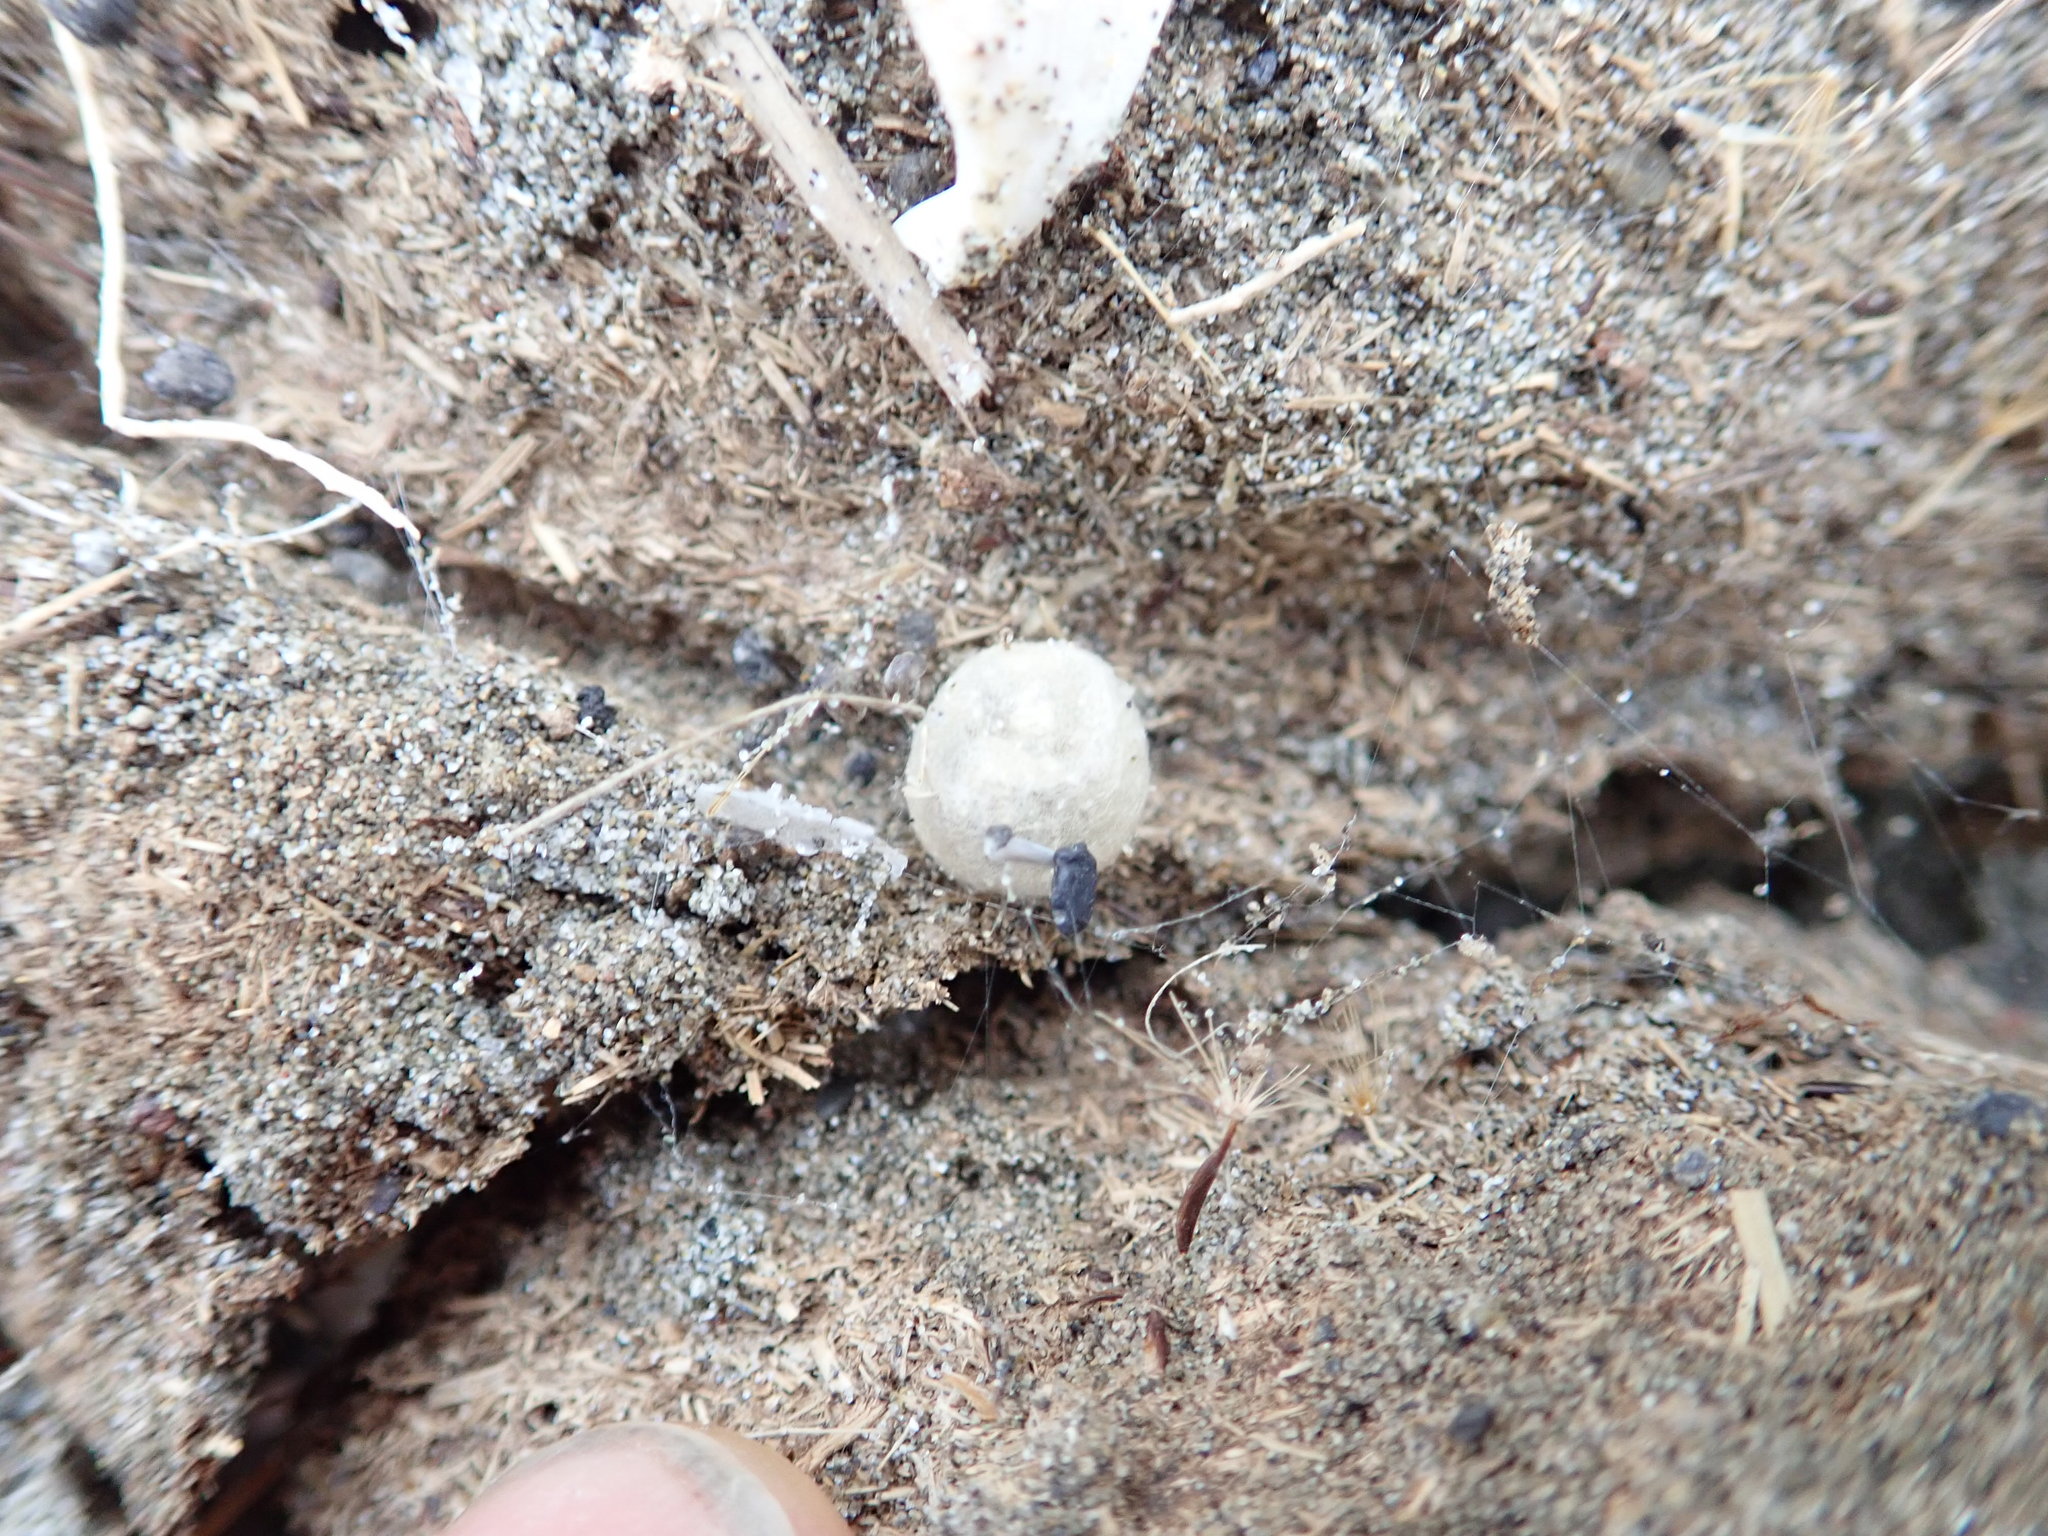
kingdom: Animalia
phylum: Arthropoda
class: Arachnida
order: Araneae
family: Theridiidae
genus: Latrodectus
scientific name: Latrodectus katipo
